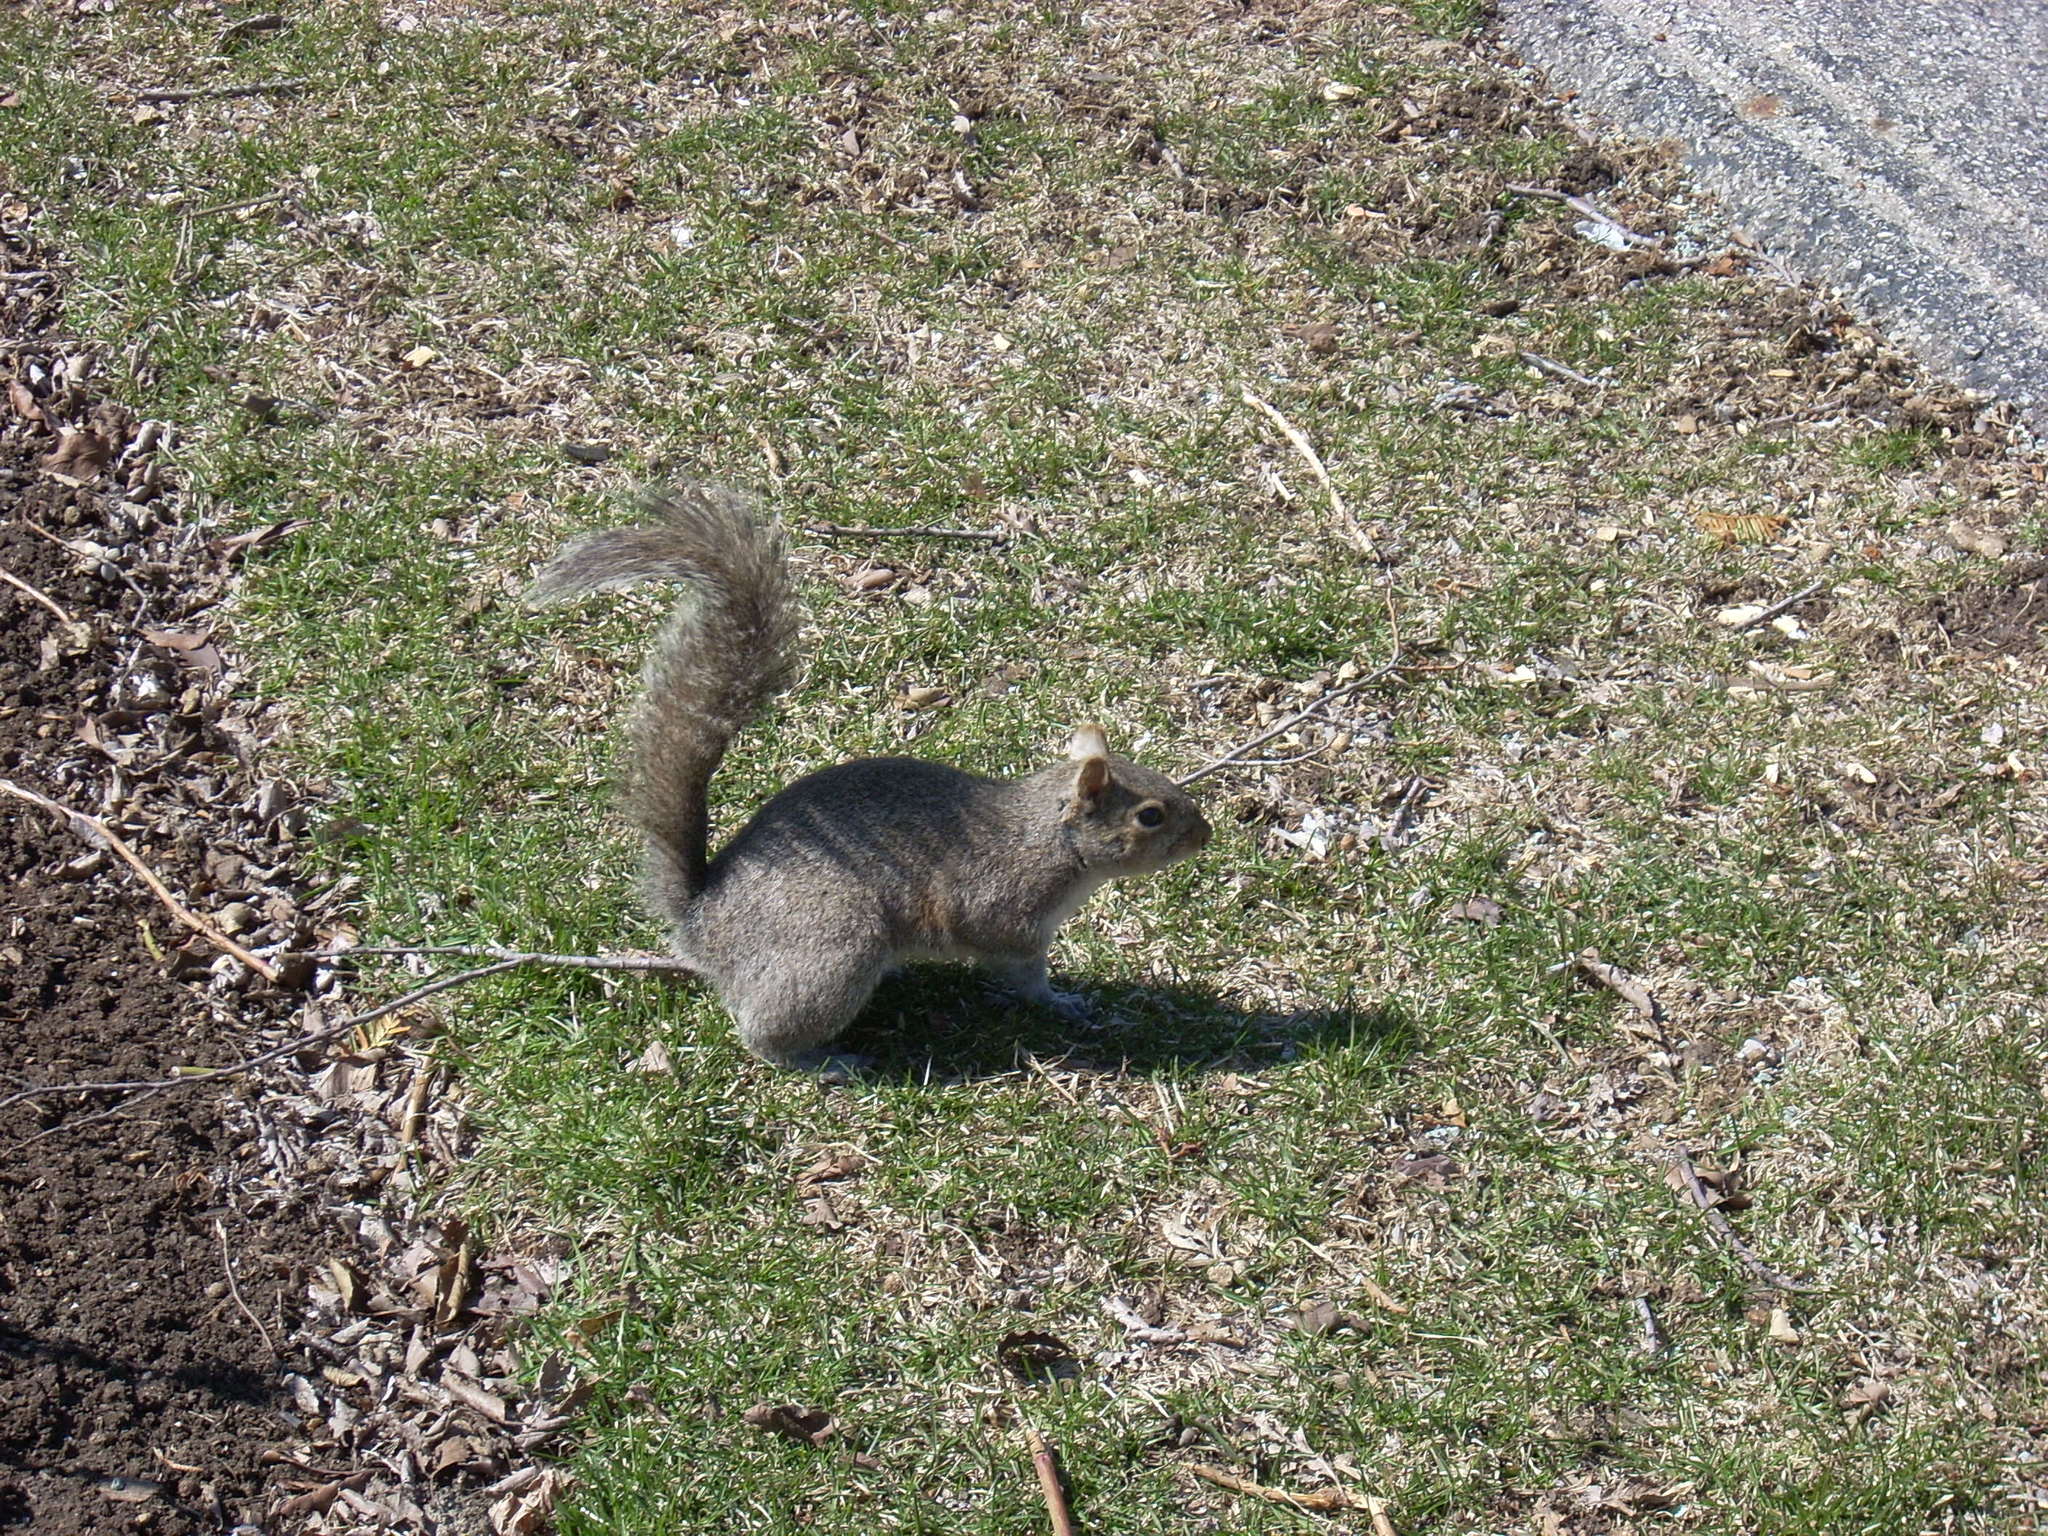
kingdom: Animalia
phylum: Chordata
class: Mammalia
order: Rodentia
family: Sciuridae
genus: Sciurus
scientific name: Sciurus carolinensis
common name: Eastern gray squirrel
